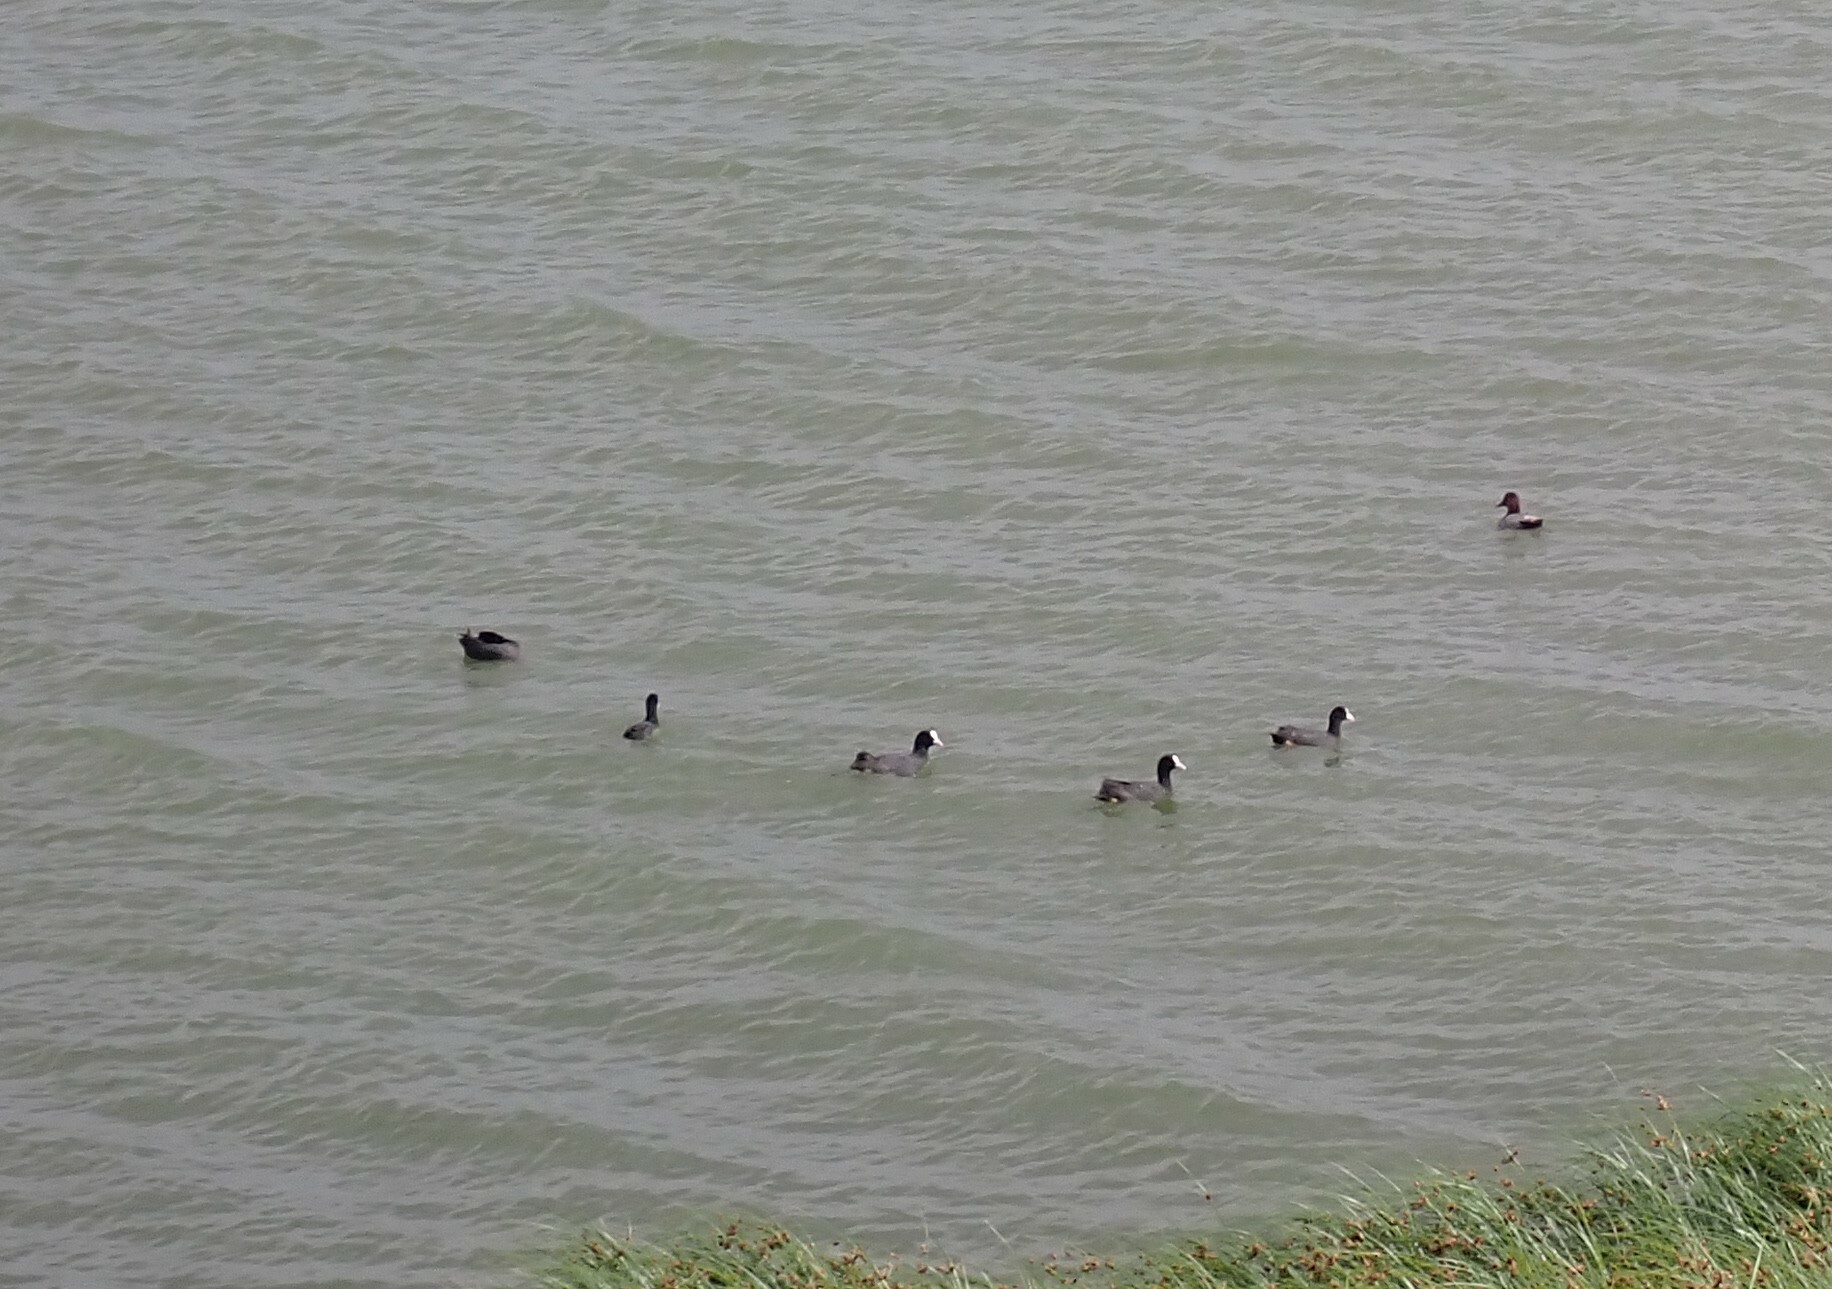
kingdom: Animalia
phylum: Chordata
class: Aves
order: Gruiformes
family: Rallidae
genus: Fulica
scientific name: Fulica atra
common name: Eurasian coot
